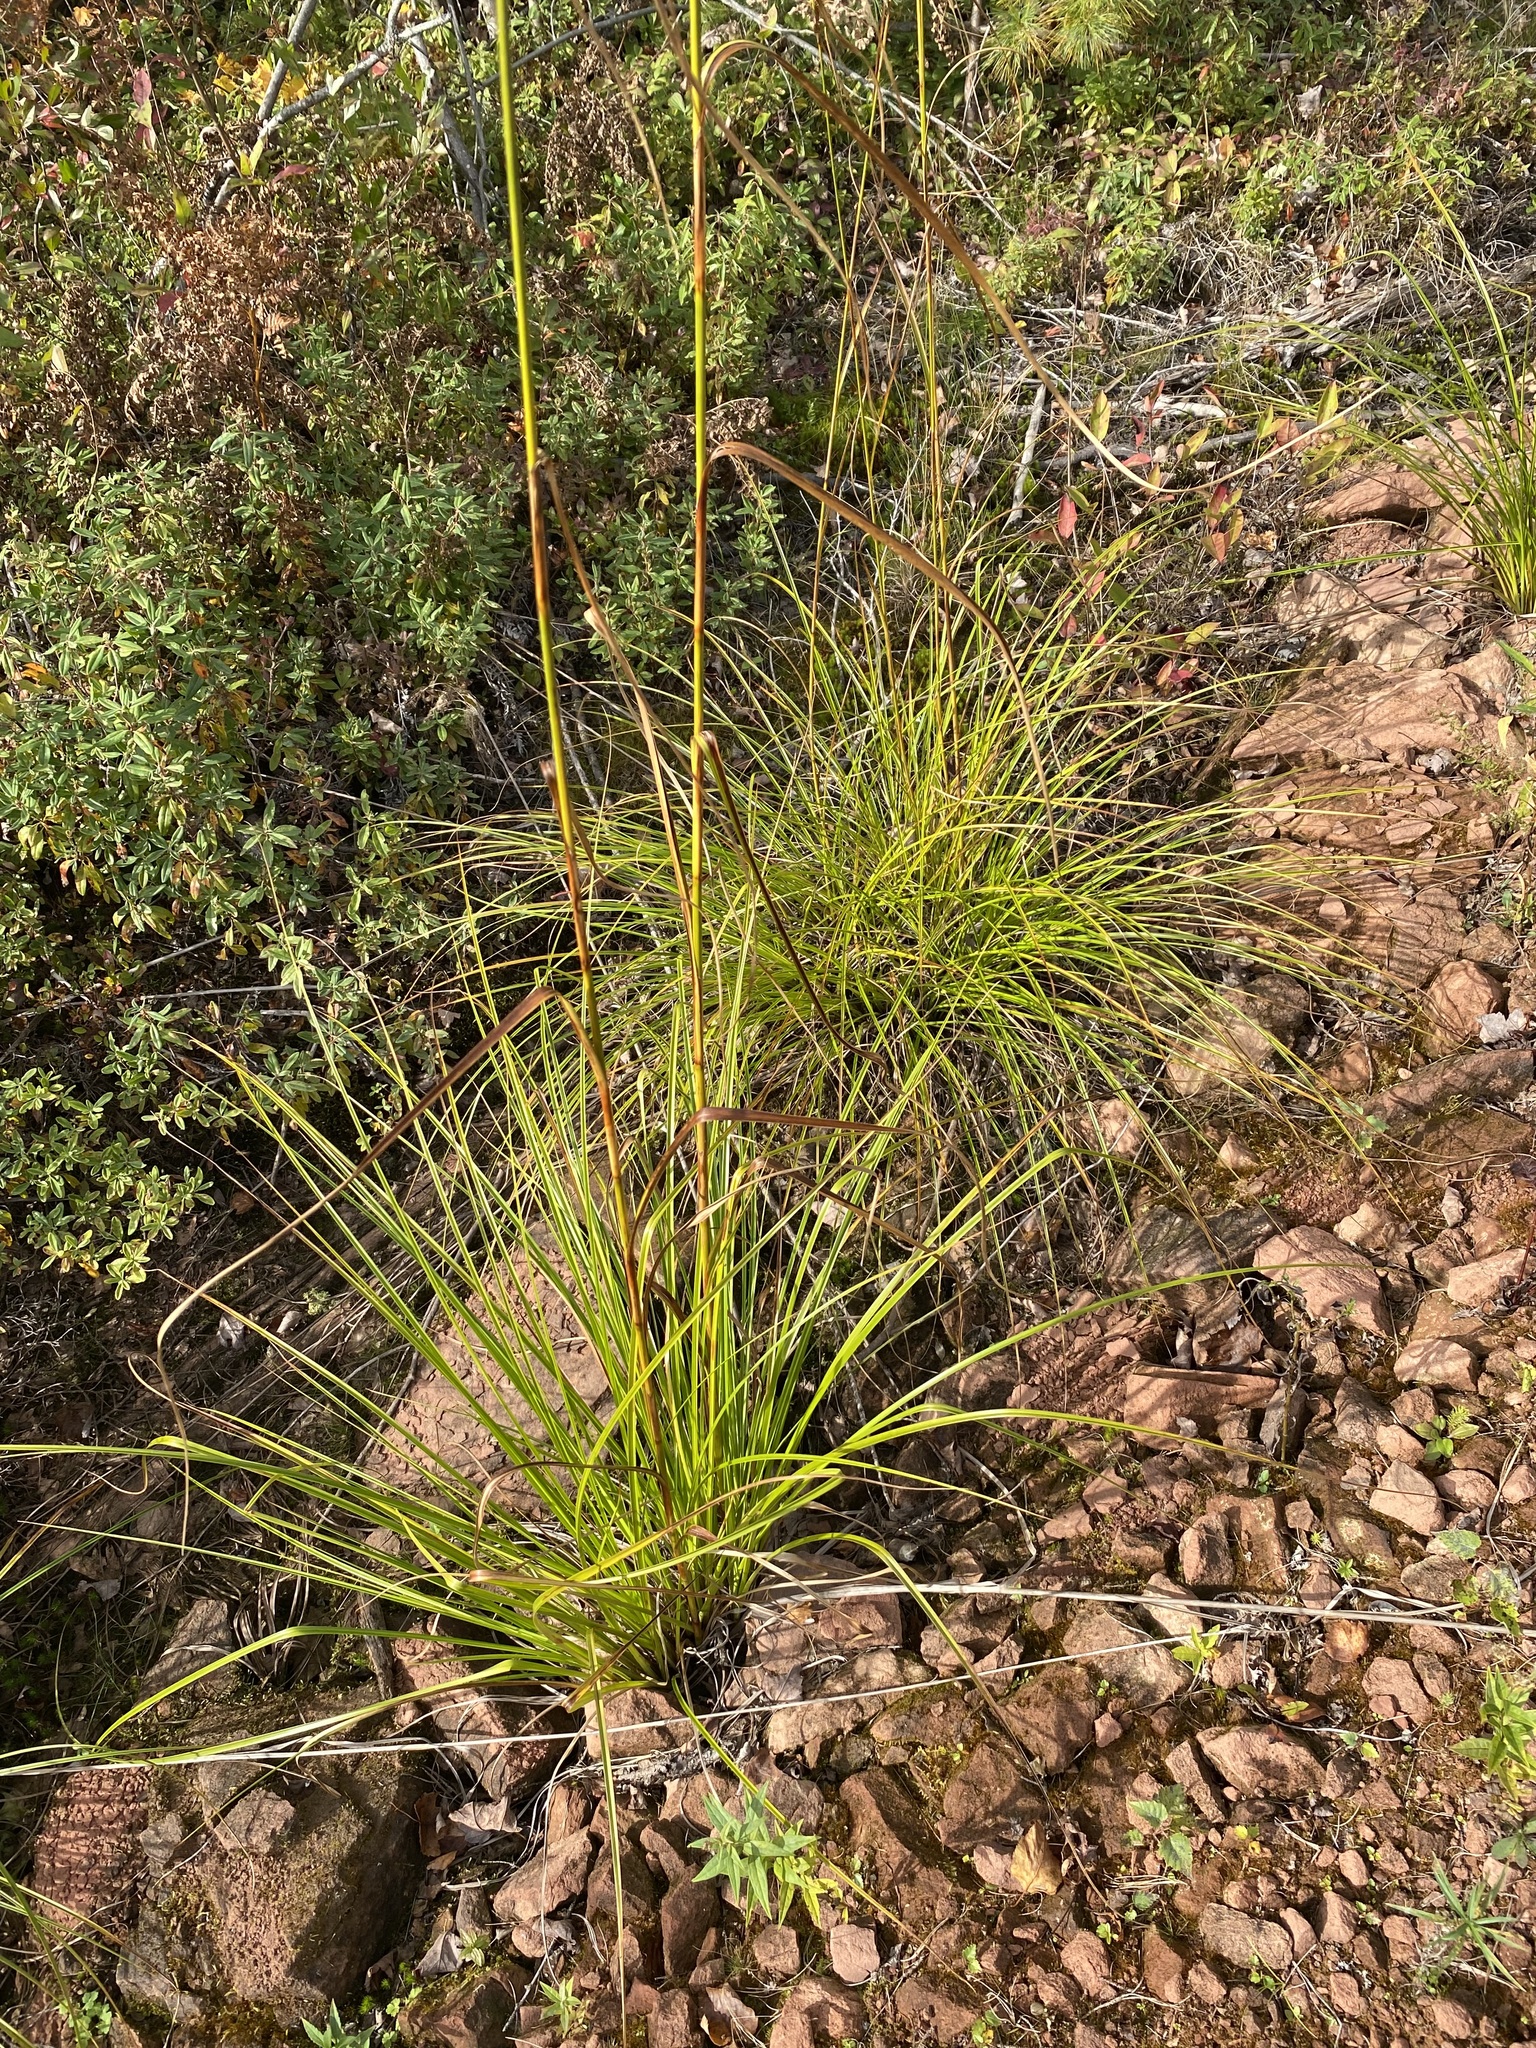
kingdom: Plantae
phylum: Tracheophyta
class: Liliopsida
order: Poales
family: Cyperaceae
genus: Scirpus
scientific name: Scirpus cyperinus
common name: Black-sheathed bulrush
